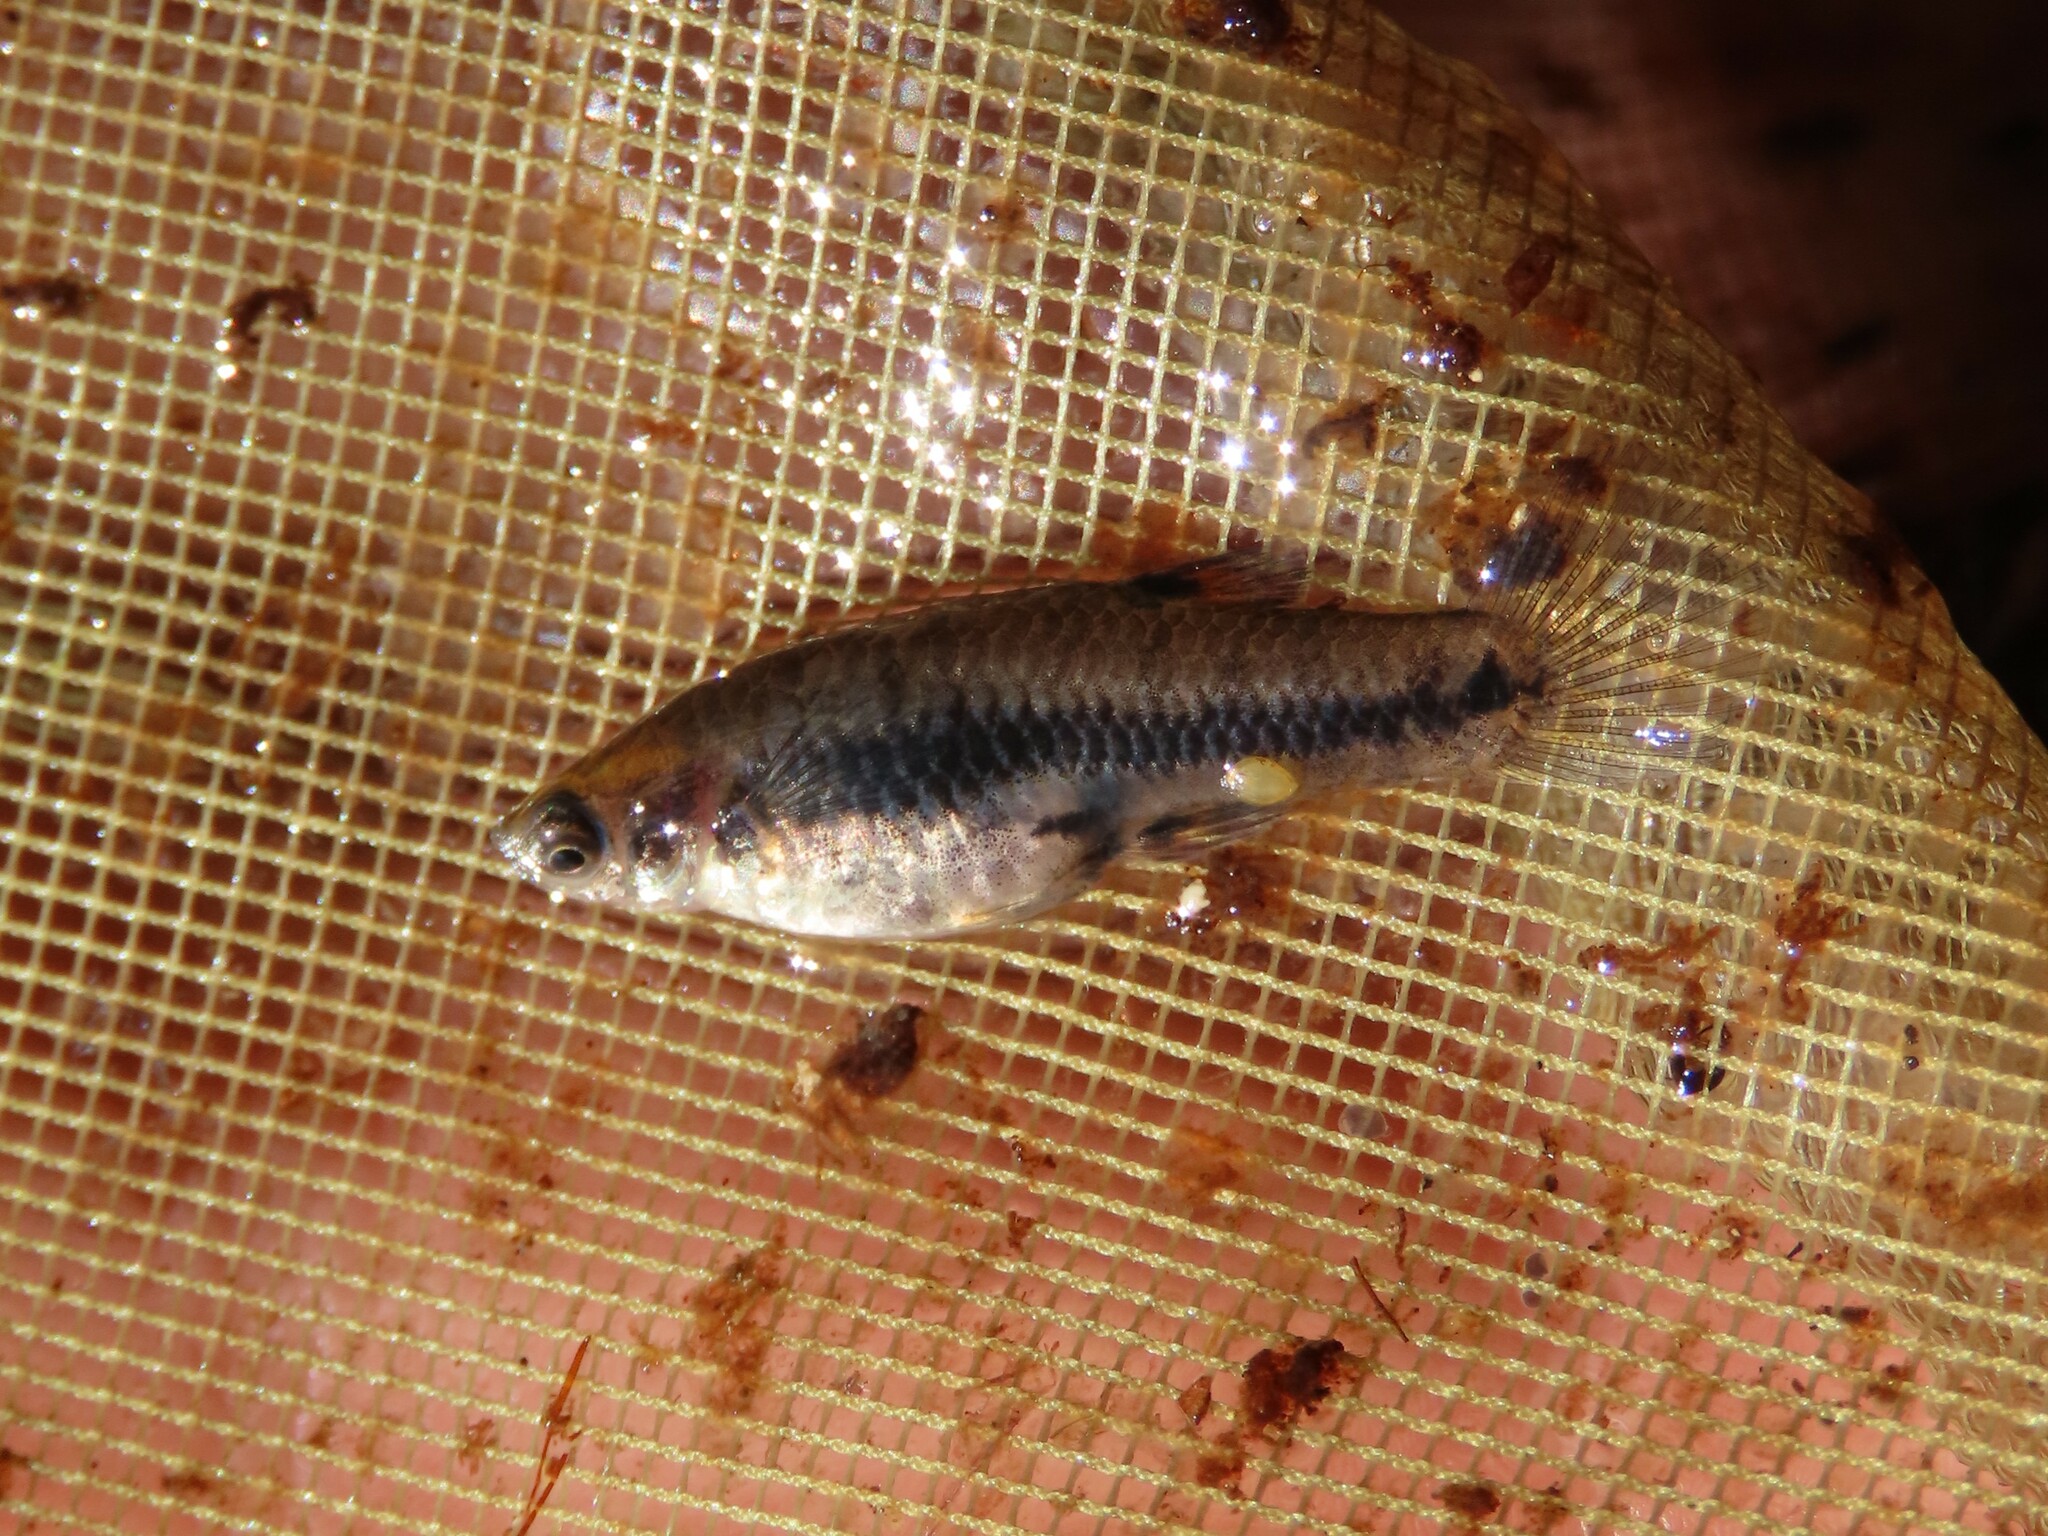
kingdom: Animalia
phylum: Chordata
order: Cyprinodontiformes
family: Poeciliidae
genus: Heterandria
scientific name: Heterandria formosa
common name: Least killifish
